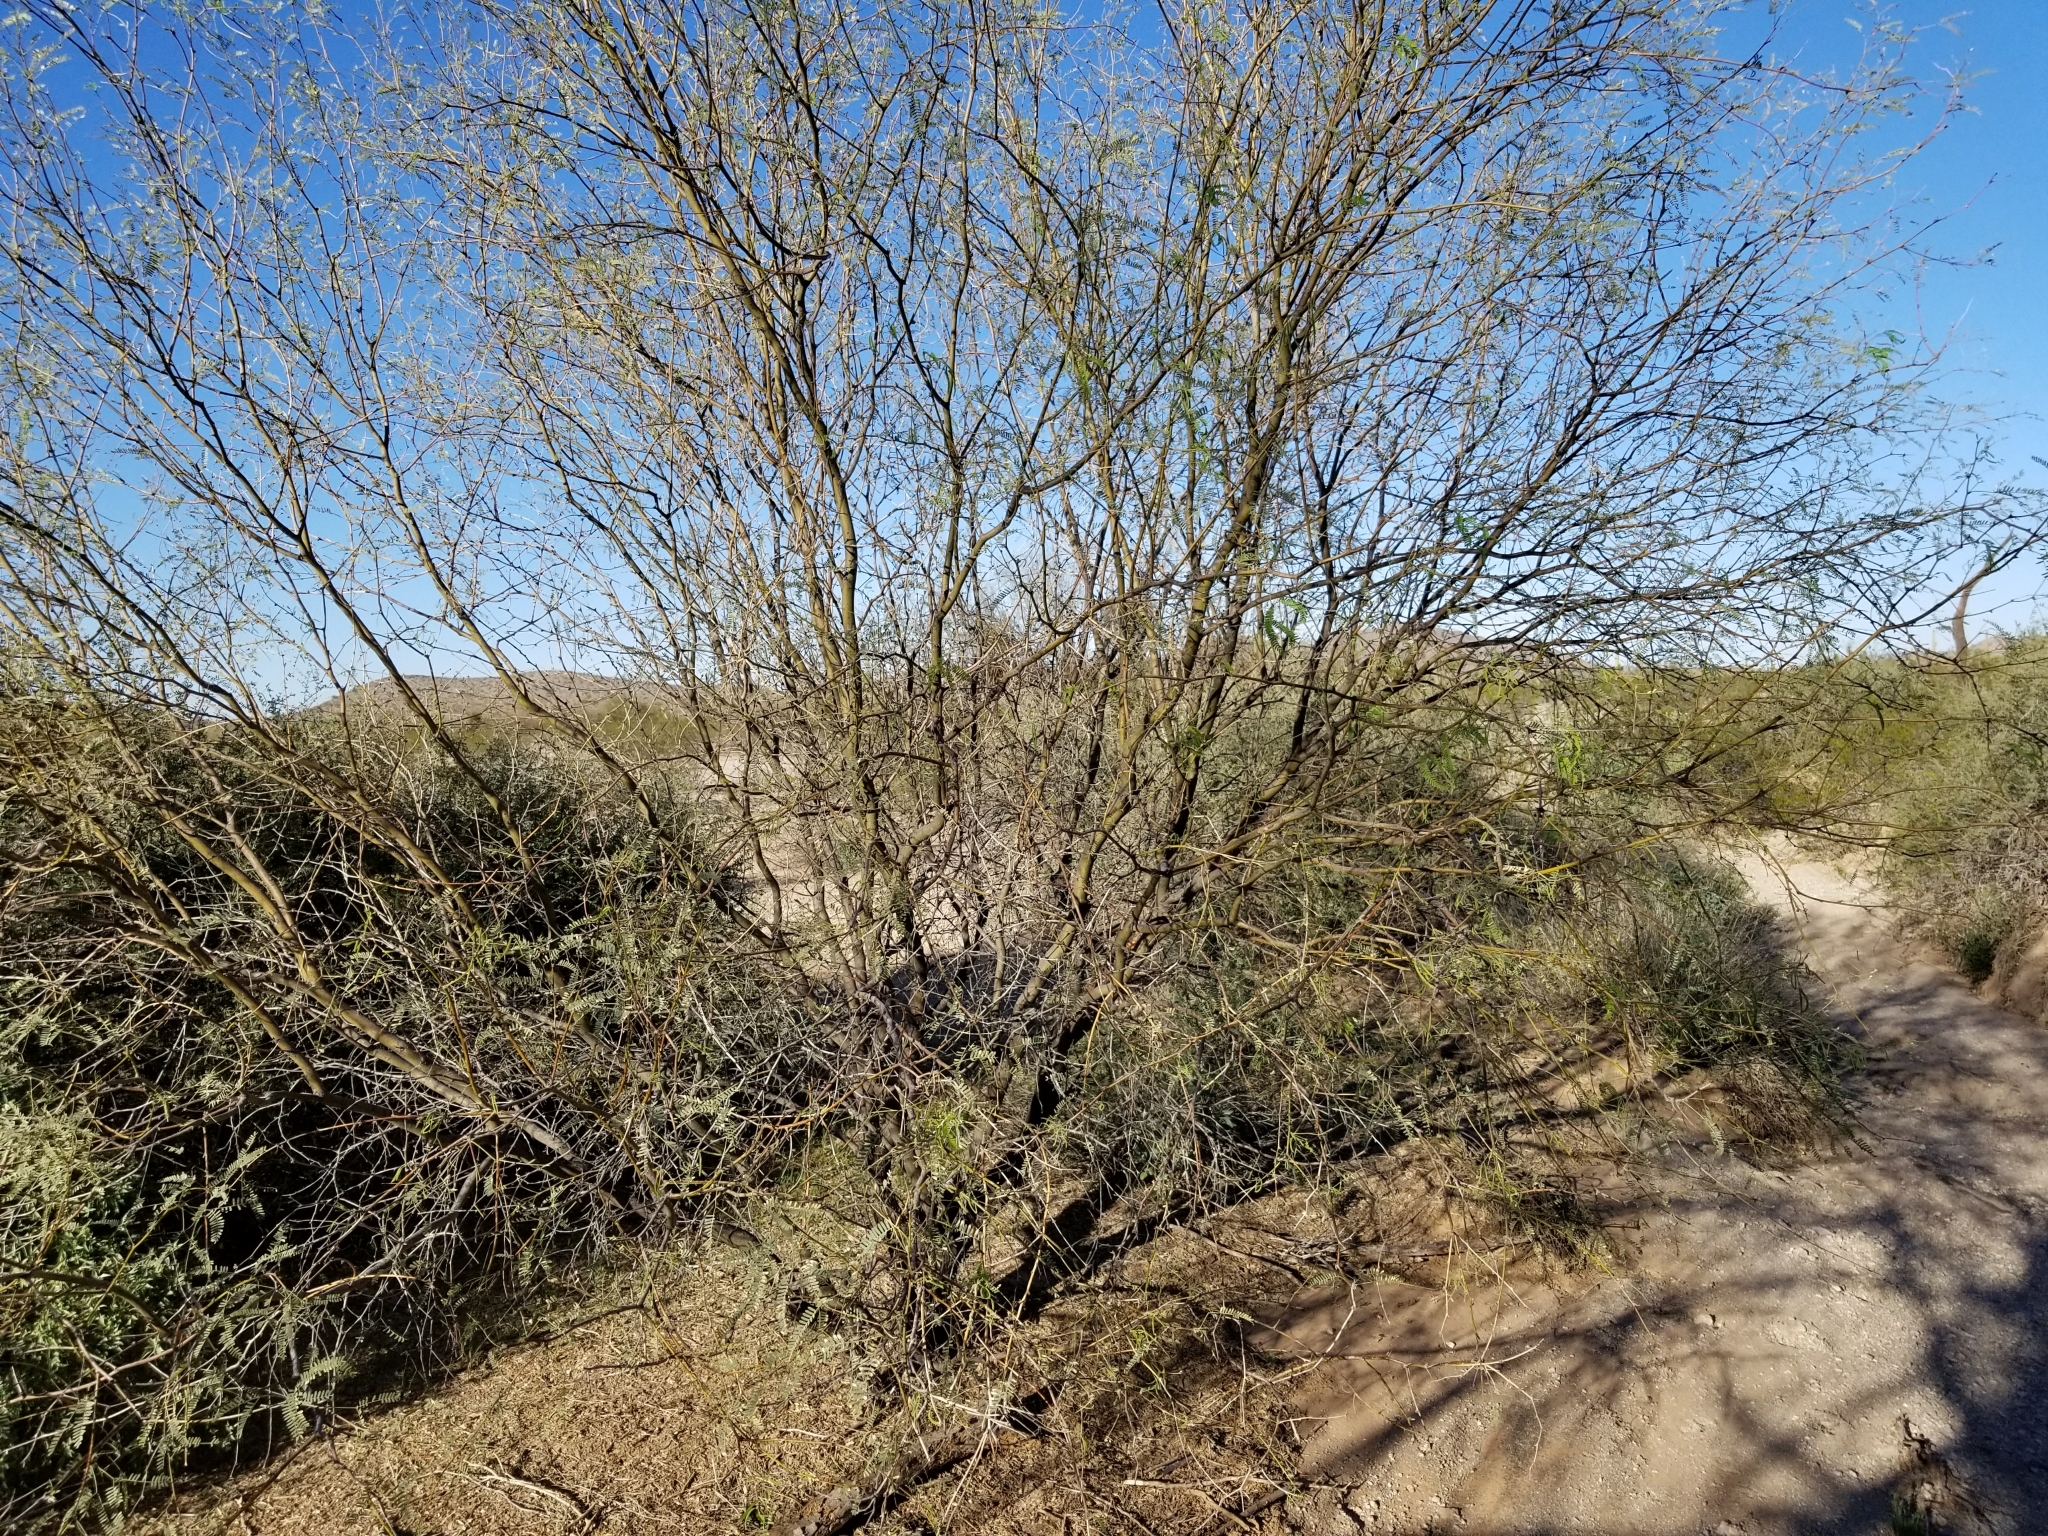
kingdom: Plantae
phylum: Tracheophyta
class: Magnoliopsida
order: Fabales
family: Fabaceae
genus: Prosopis
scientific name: Prosopis velutina
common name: Velvet mesquite
